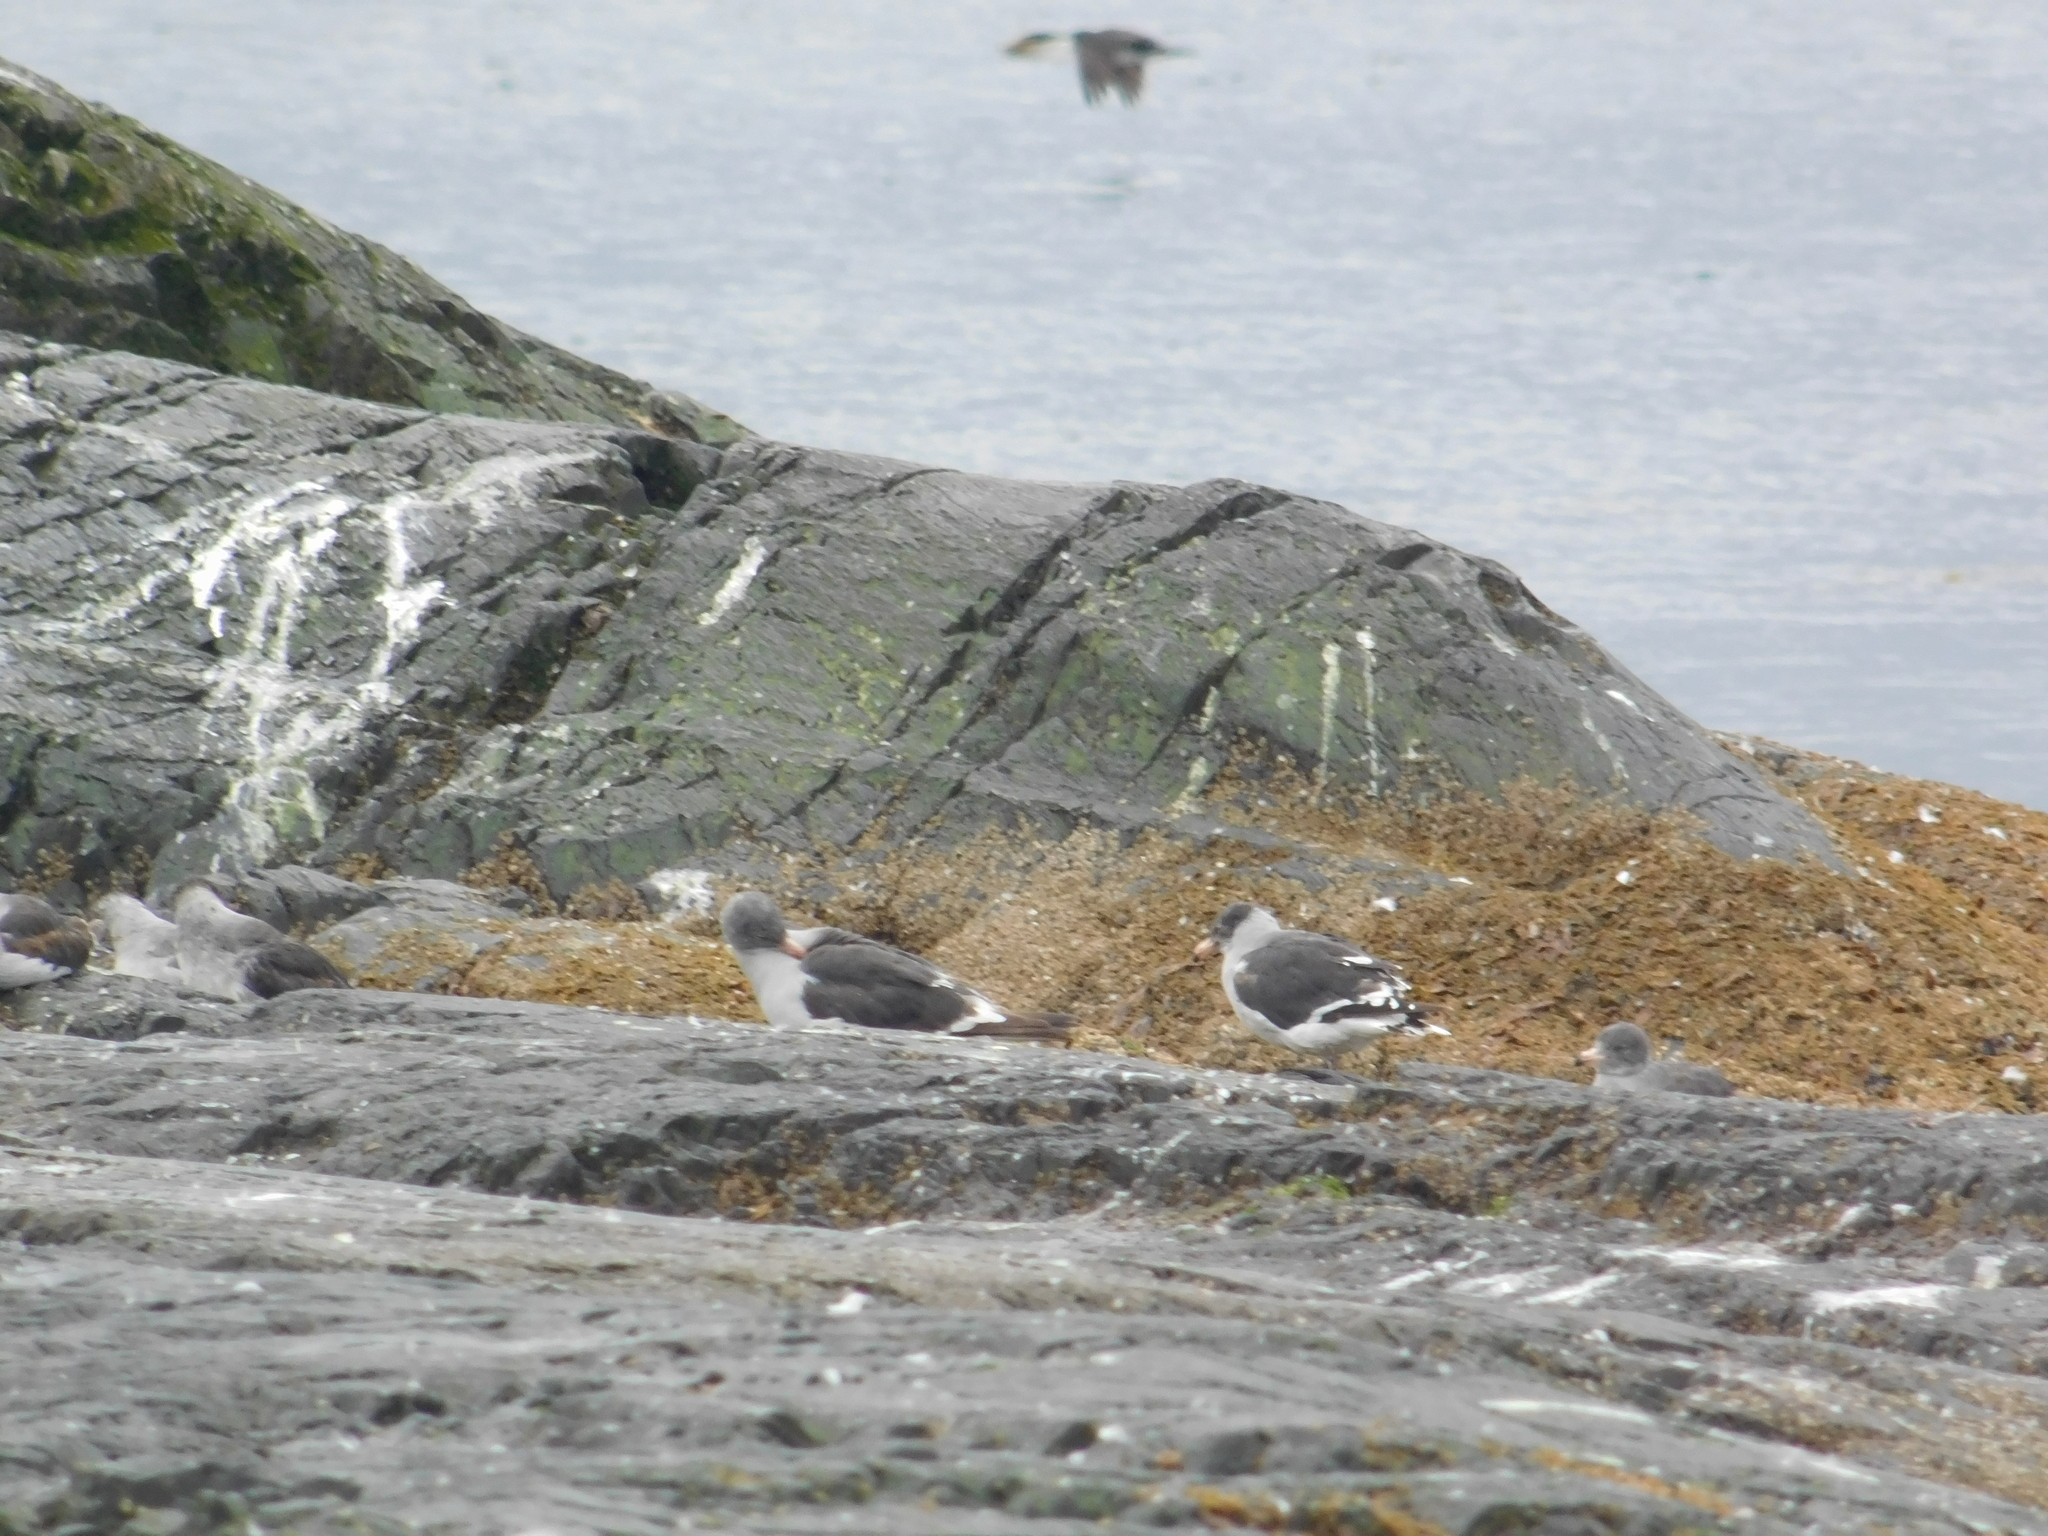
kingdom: Animalia
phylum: Chordata
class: Aves
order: Charadriiformes
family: Laridae
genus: Leucophaeus
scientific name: Leucophaeus scoresbii
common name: Dolphin gull
